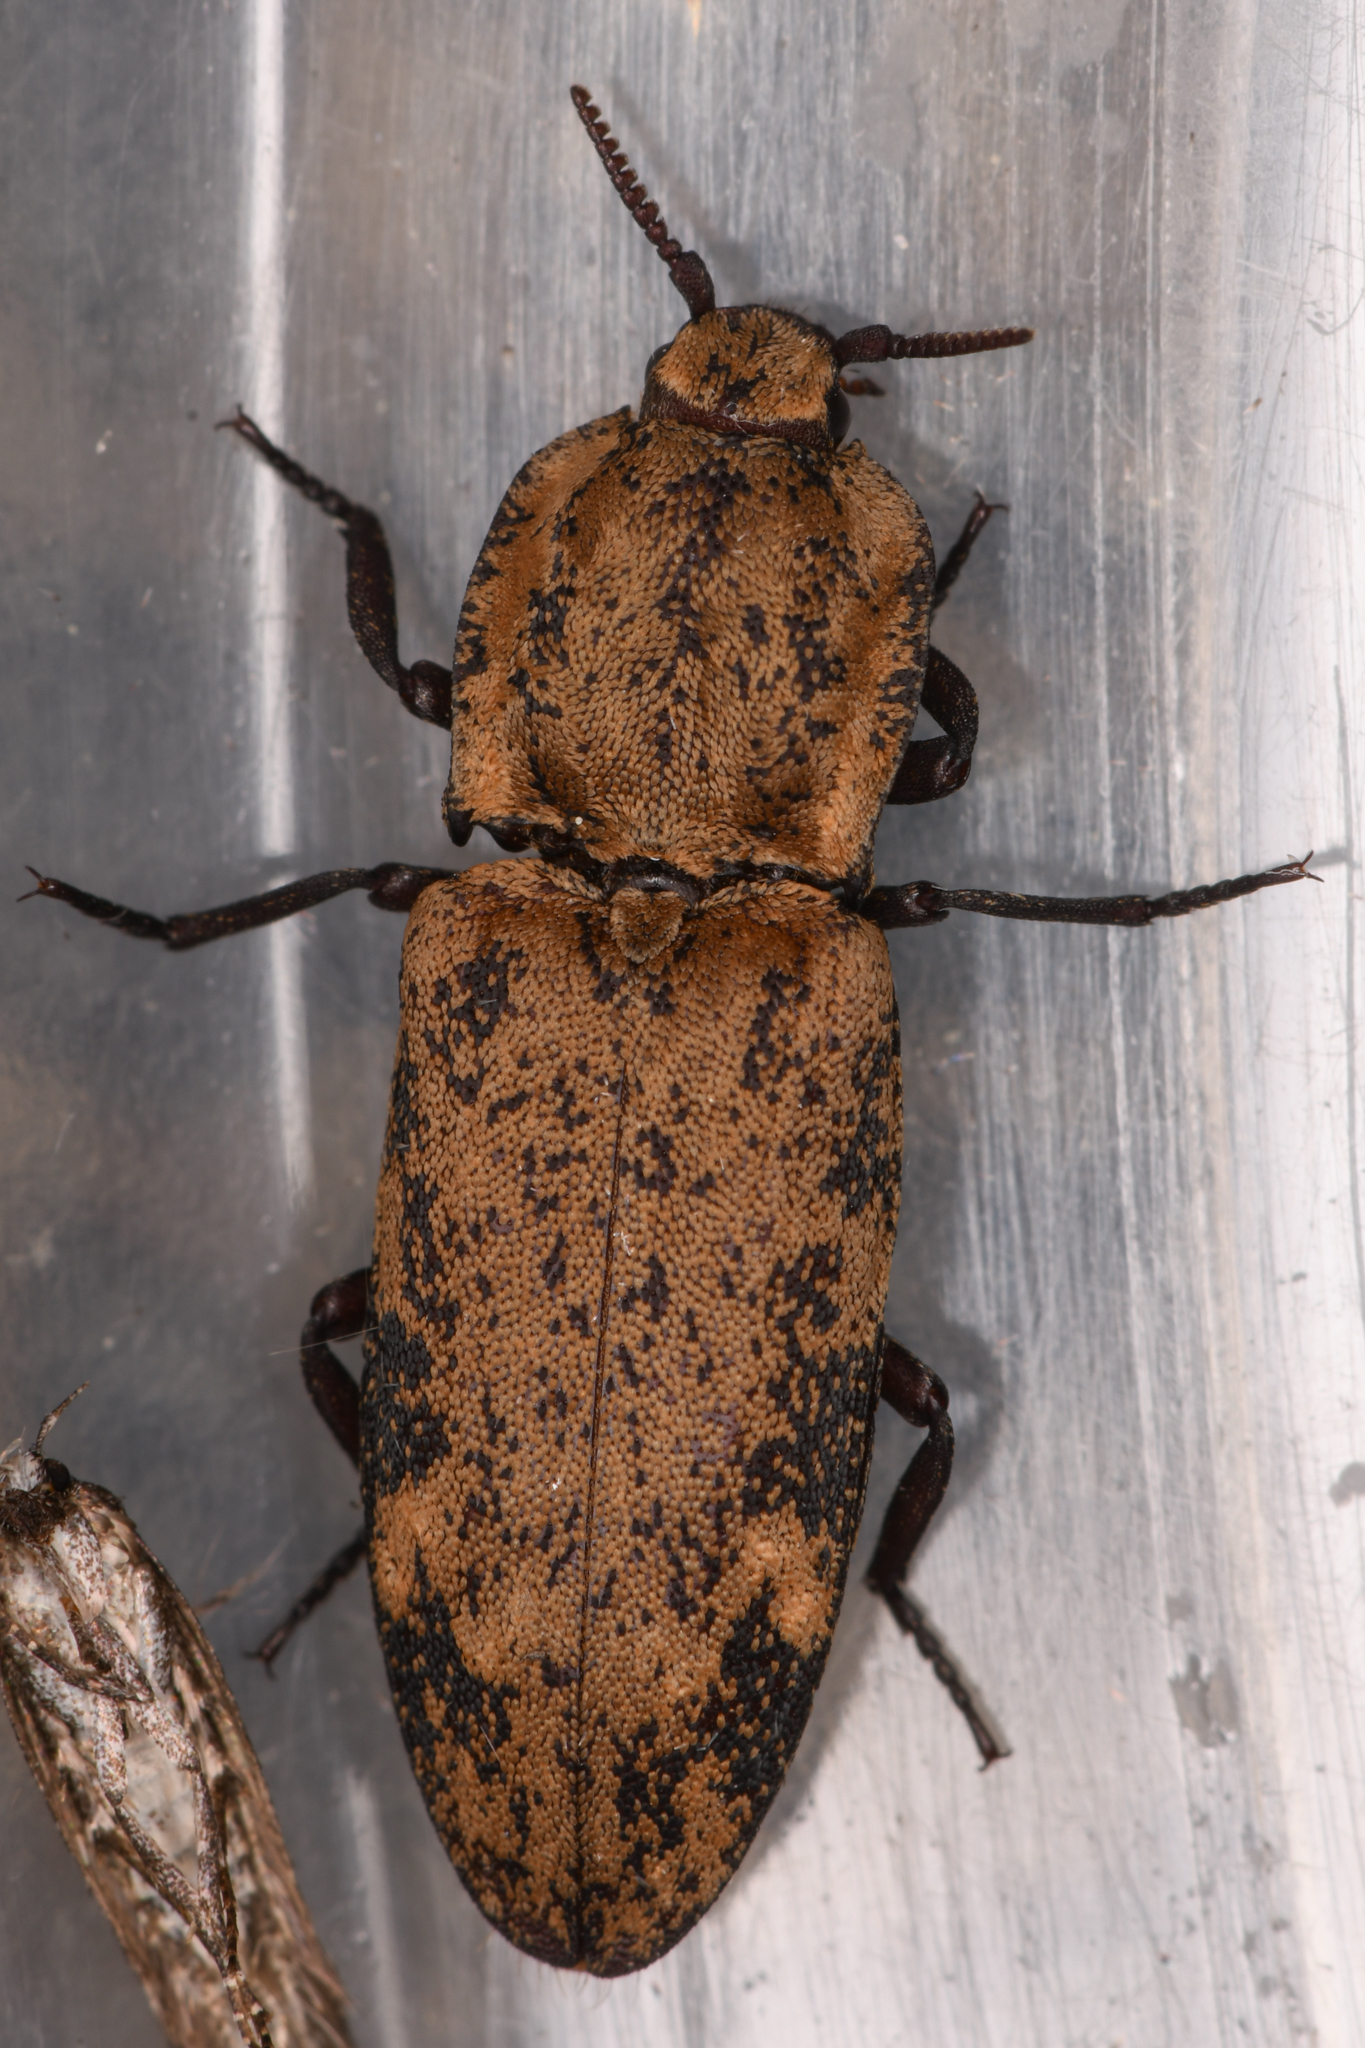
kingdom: Animalia
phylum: Arthropoda
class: Insecta
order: Coleoptera
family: Elateridae
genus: Danosoma
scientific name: Danosoma brevicorne
